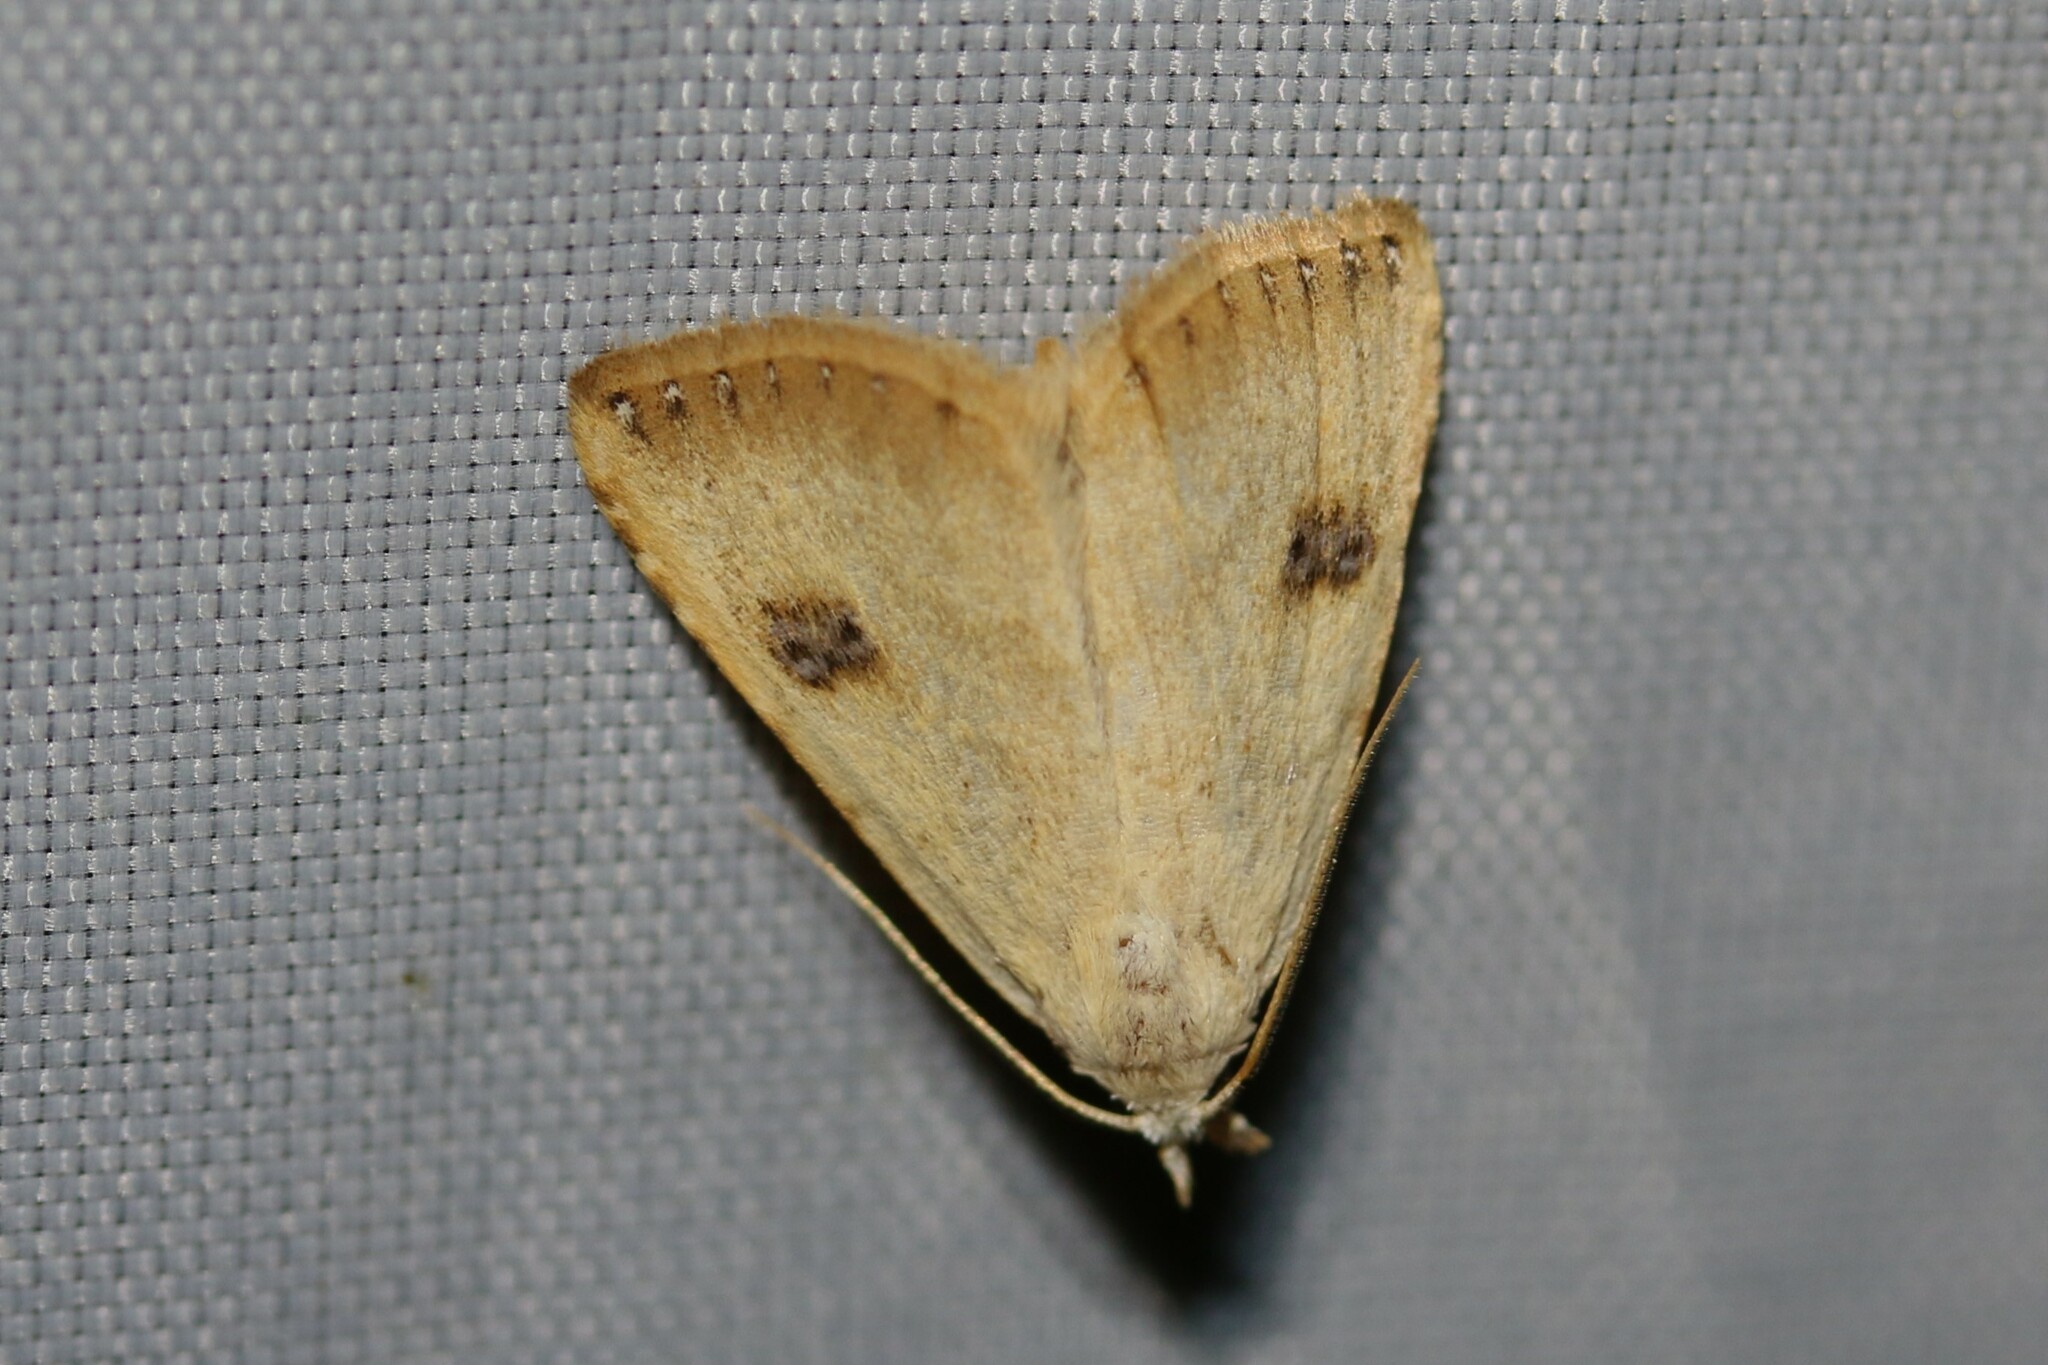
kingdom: Animalia
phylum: Arthropoda
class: Insecta
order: Lepidoptera
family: Erebidae
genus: Rivula
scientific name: Rivula sericealis
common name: Straw dot
